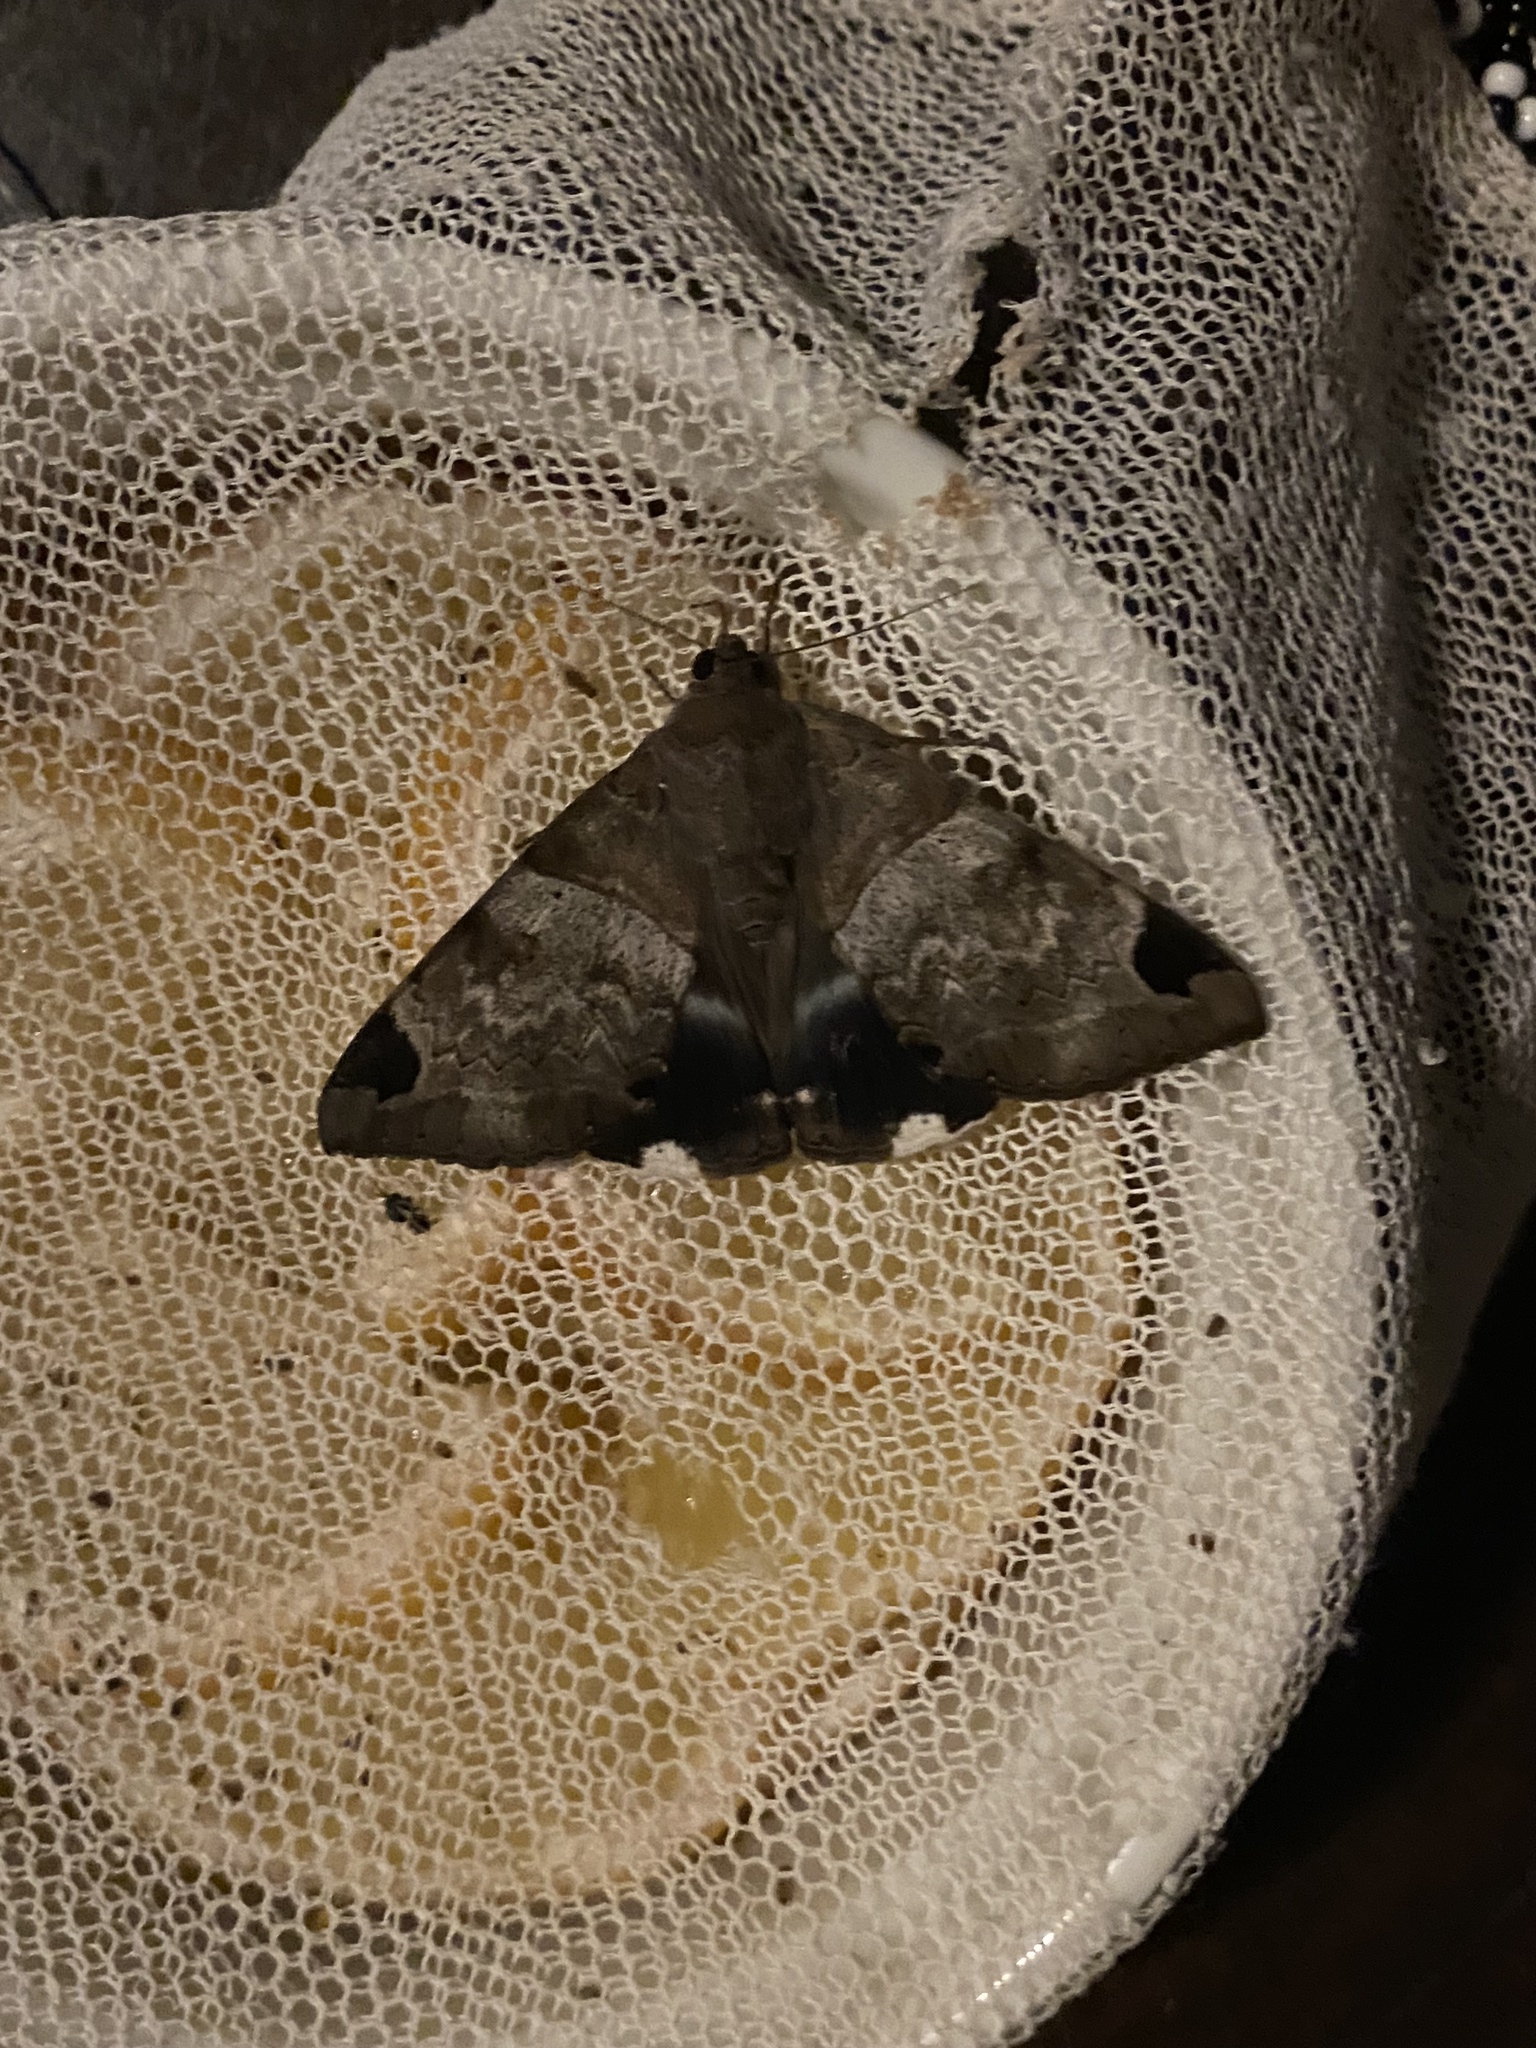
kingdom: Animalia
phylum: Arthropoda
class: Insecta
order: Lepidoptera
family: Erebidae
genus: Achaea
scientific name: Achaea lienardi
